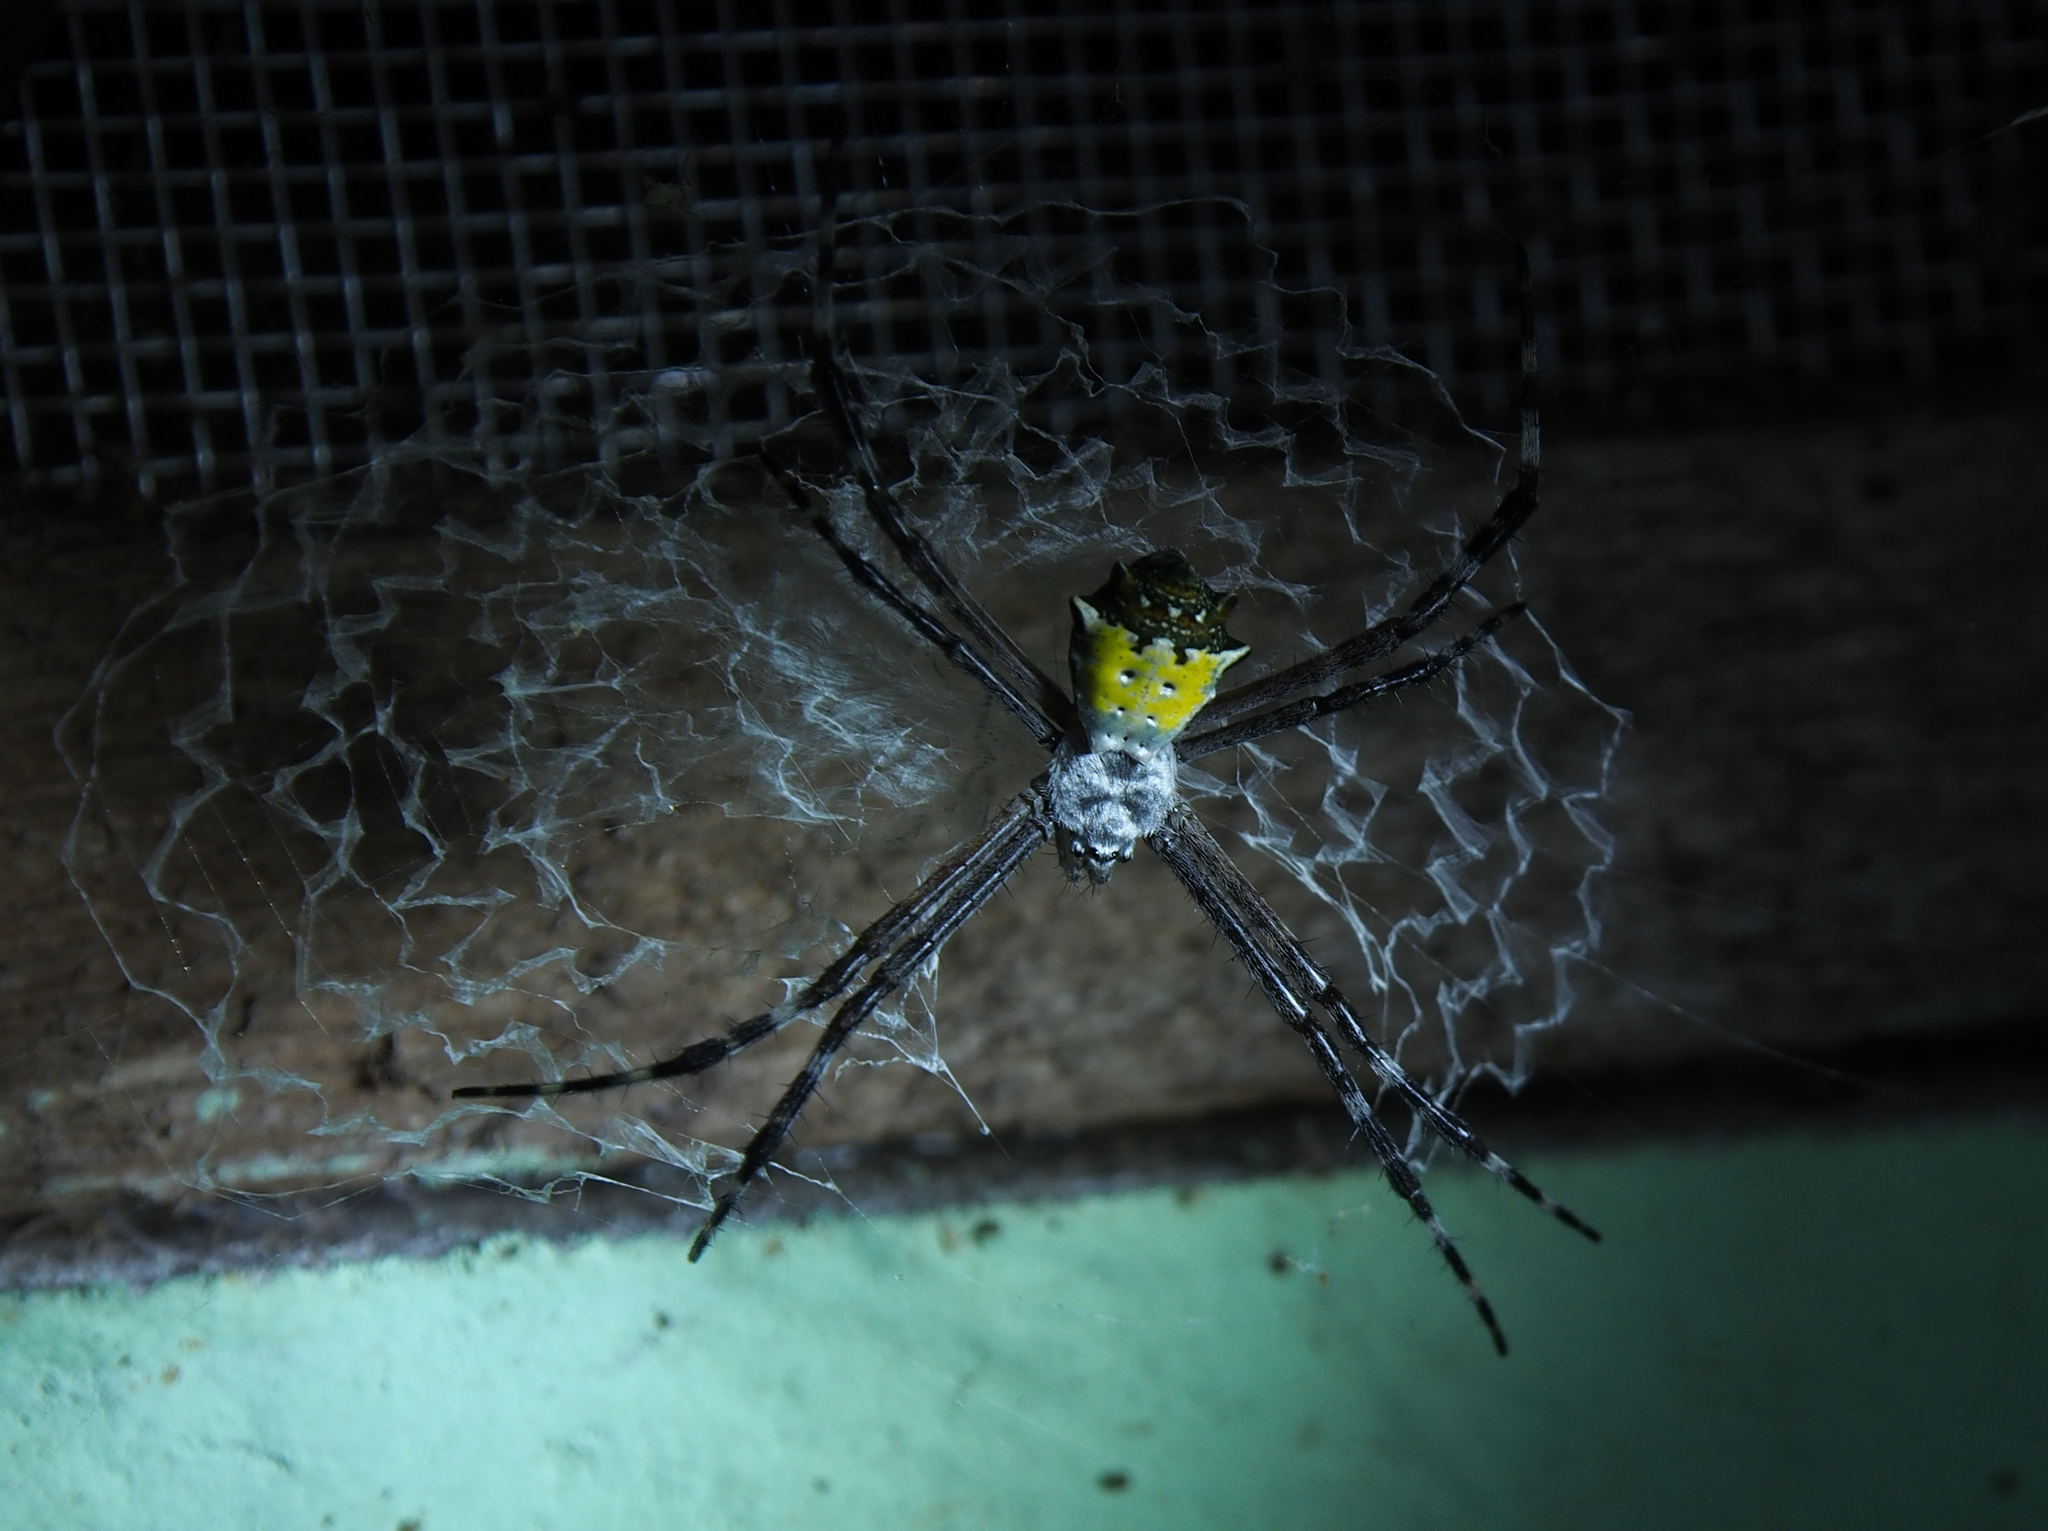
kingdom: Animalia
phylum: Arthropoda
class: Arachnida
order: Araneae
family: Araneidae
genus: Argiope
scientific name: Argiope submaronica
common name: Orb weavers
